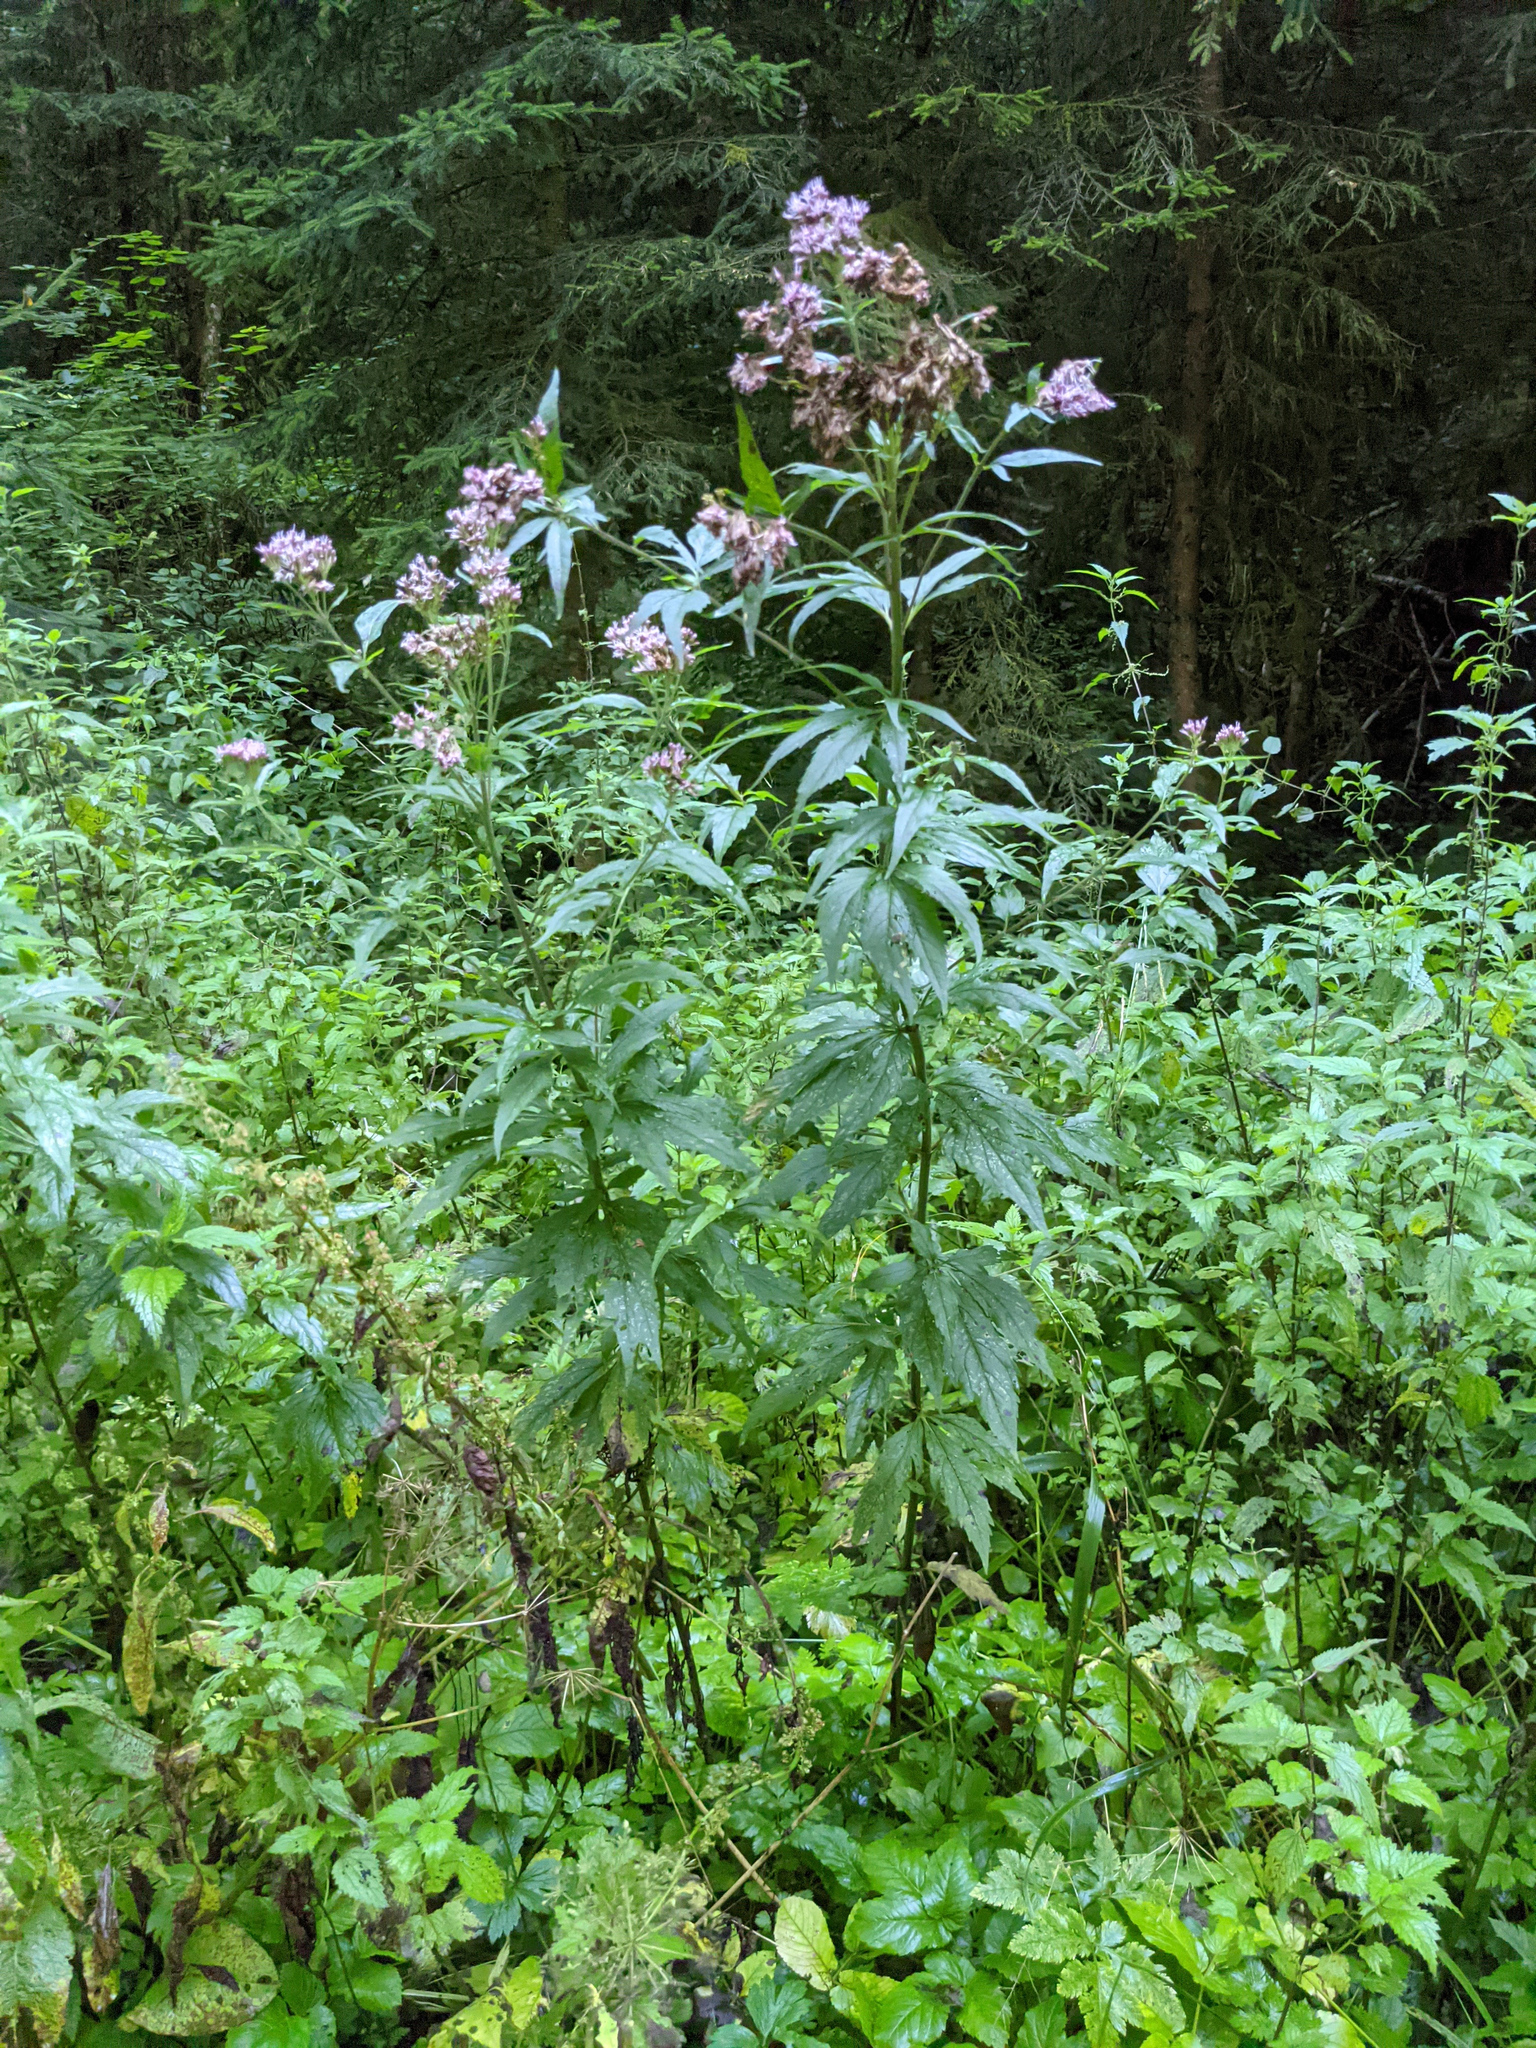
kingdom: Plantae
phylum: Tracheophyta
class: Magnoliopsida
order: Asterales
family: Asteraceae
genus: Eupatorium
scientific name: Eupatorium cannabinum
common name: Hemp-agrimony
